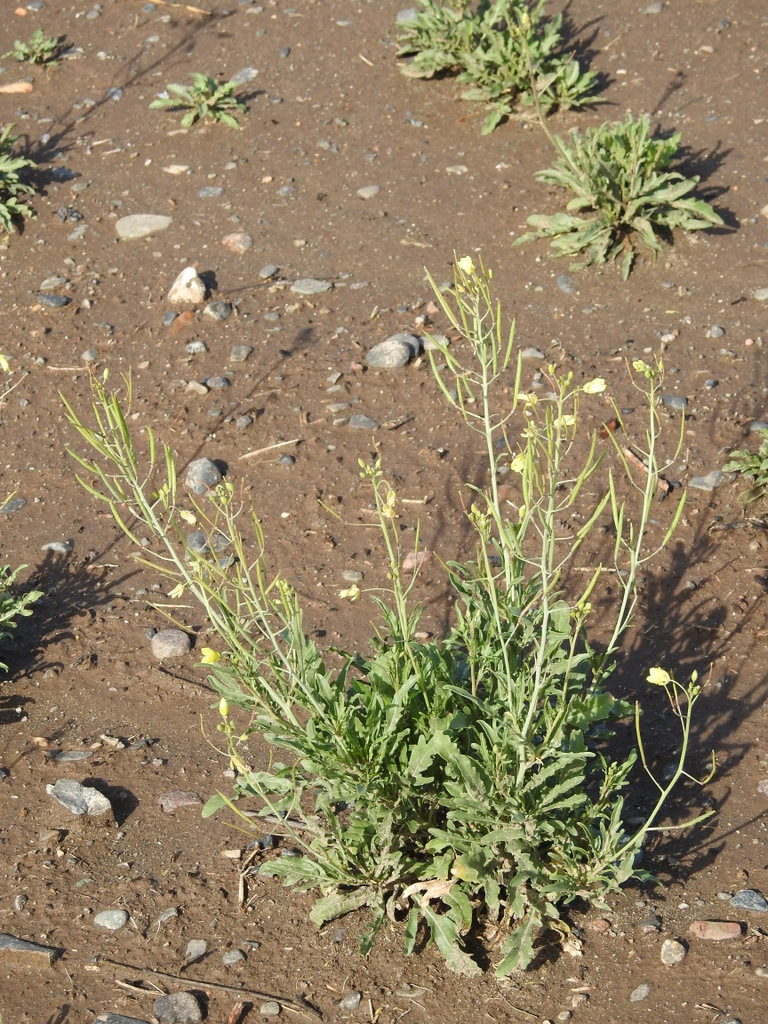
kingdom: Plantae
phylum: Tracheophyta
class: Magnoliopsida
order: Brassicales
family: Brassicaceae
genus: Diplotaxis
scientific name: Diplotaxis tenuifolia
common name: Perennial wall-rocket
